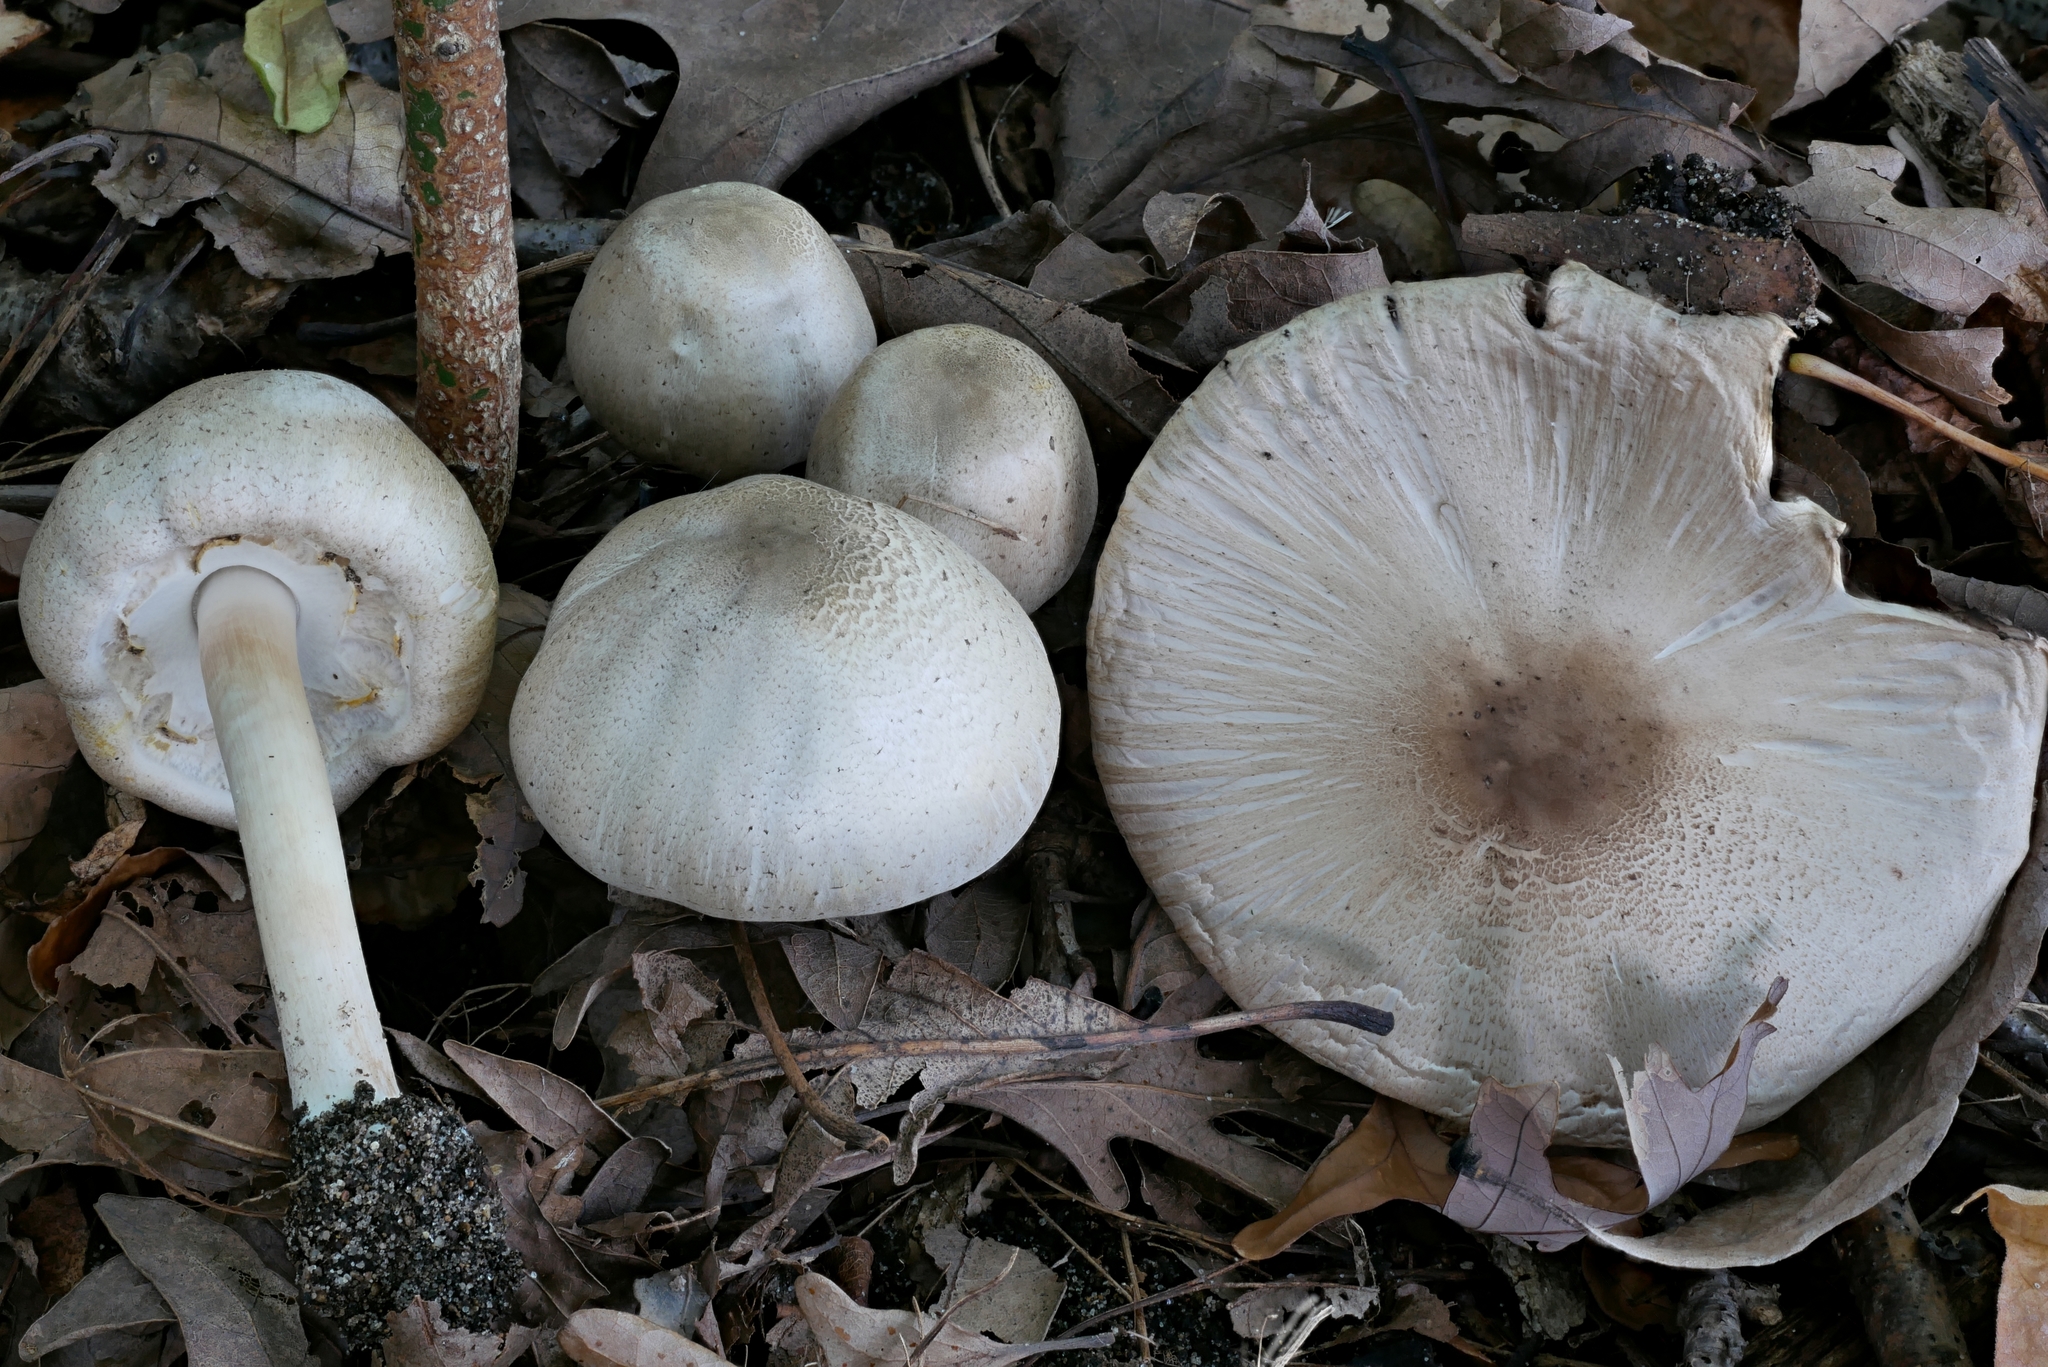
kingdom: Fungi
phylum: Basidiomycota
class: Agaricomycetes
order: Agaricales
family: Agaricaceae
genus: Agaricus
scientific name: Agaricus placomyces
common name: Inky mushroom
